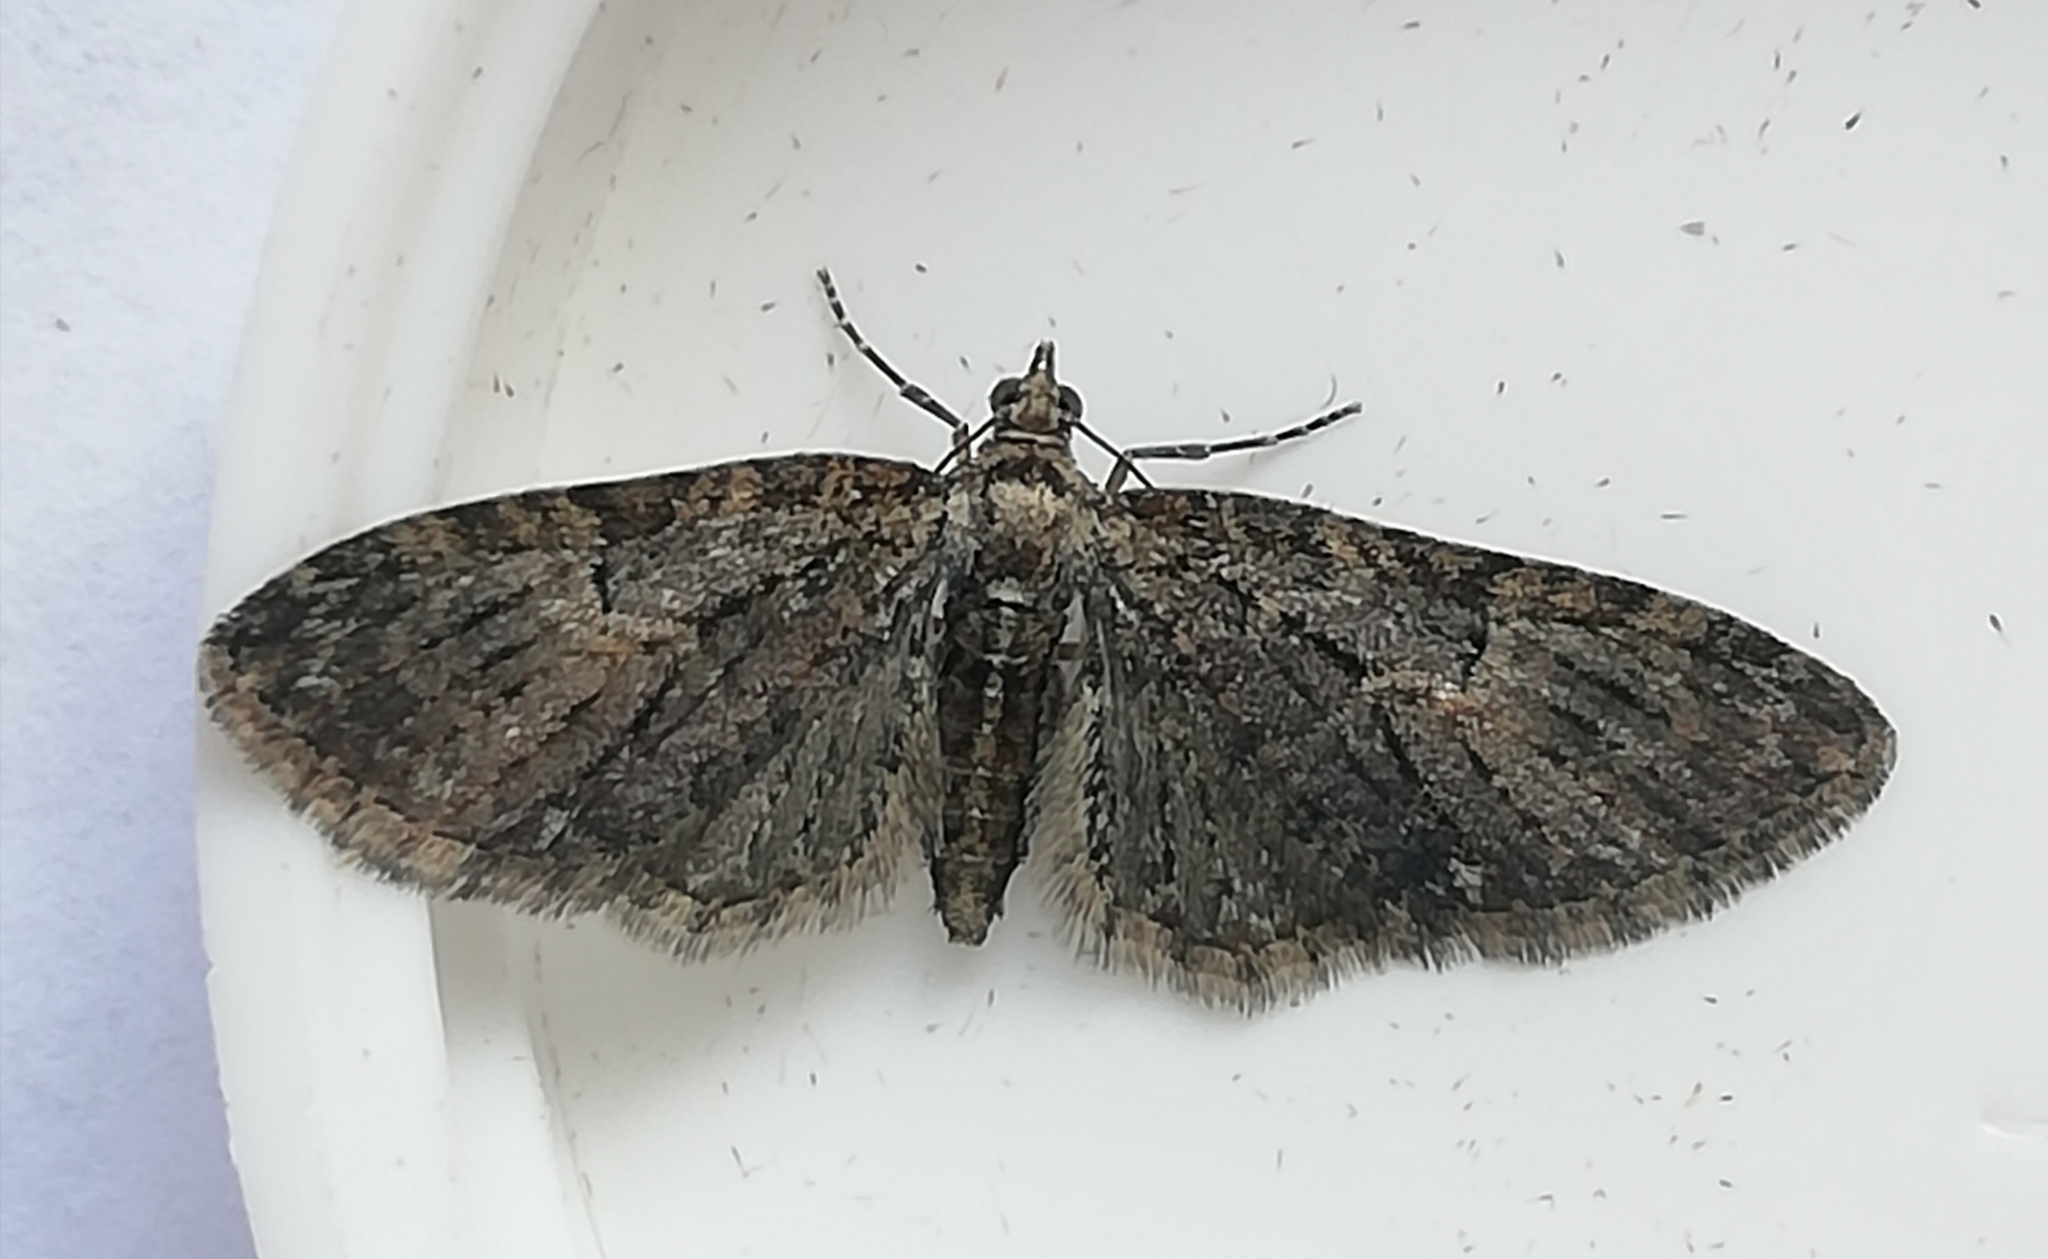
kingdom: Animalia
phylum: Arthropoda
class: Insecta
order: Lepidoptera
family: Geometridae
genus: Eupithecia
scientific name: Eupithecia abbreviata
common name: Brindled pug
